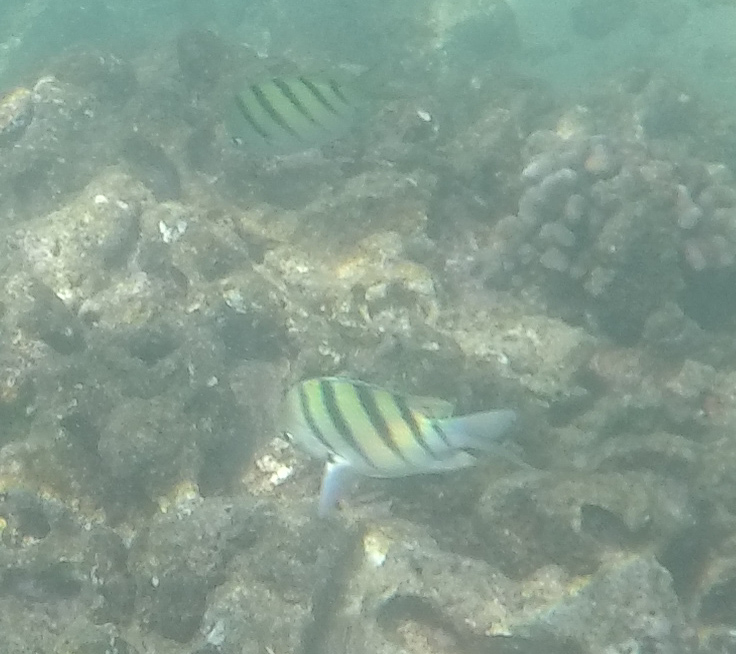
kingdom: Animalia
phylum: Chordata
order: Perciformes
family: Pomacentridae
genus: Abudefduf
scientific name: Abudefduf abdominalis
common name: Green damselfish
